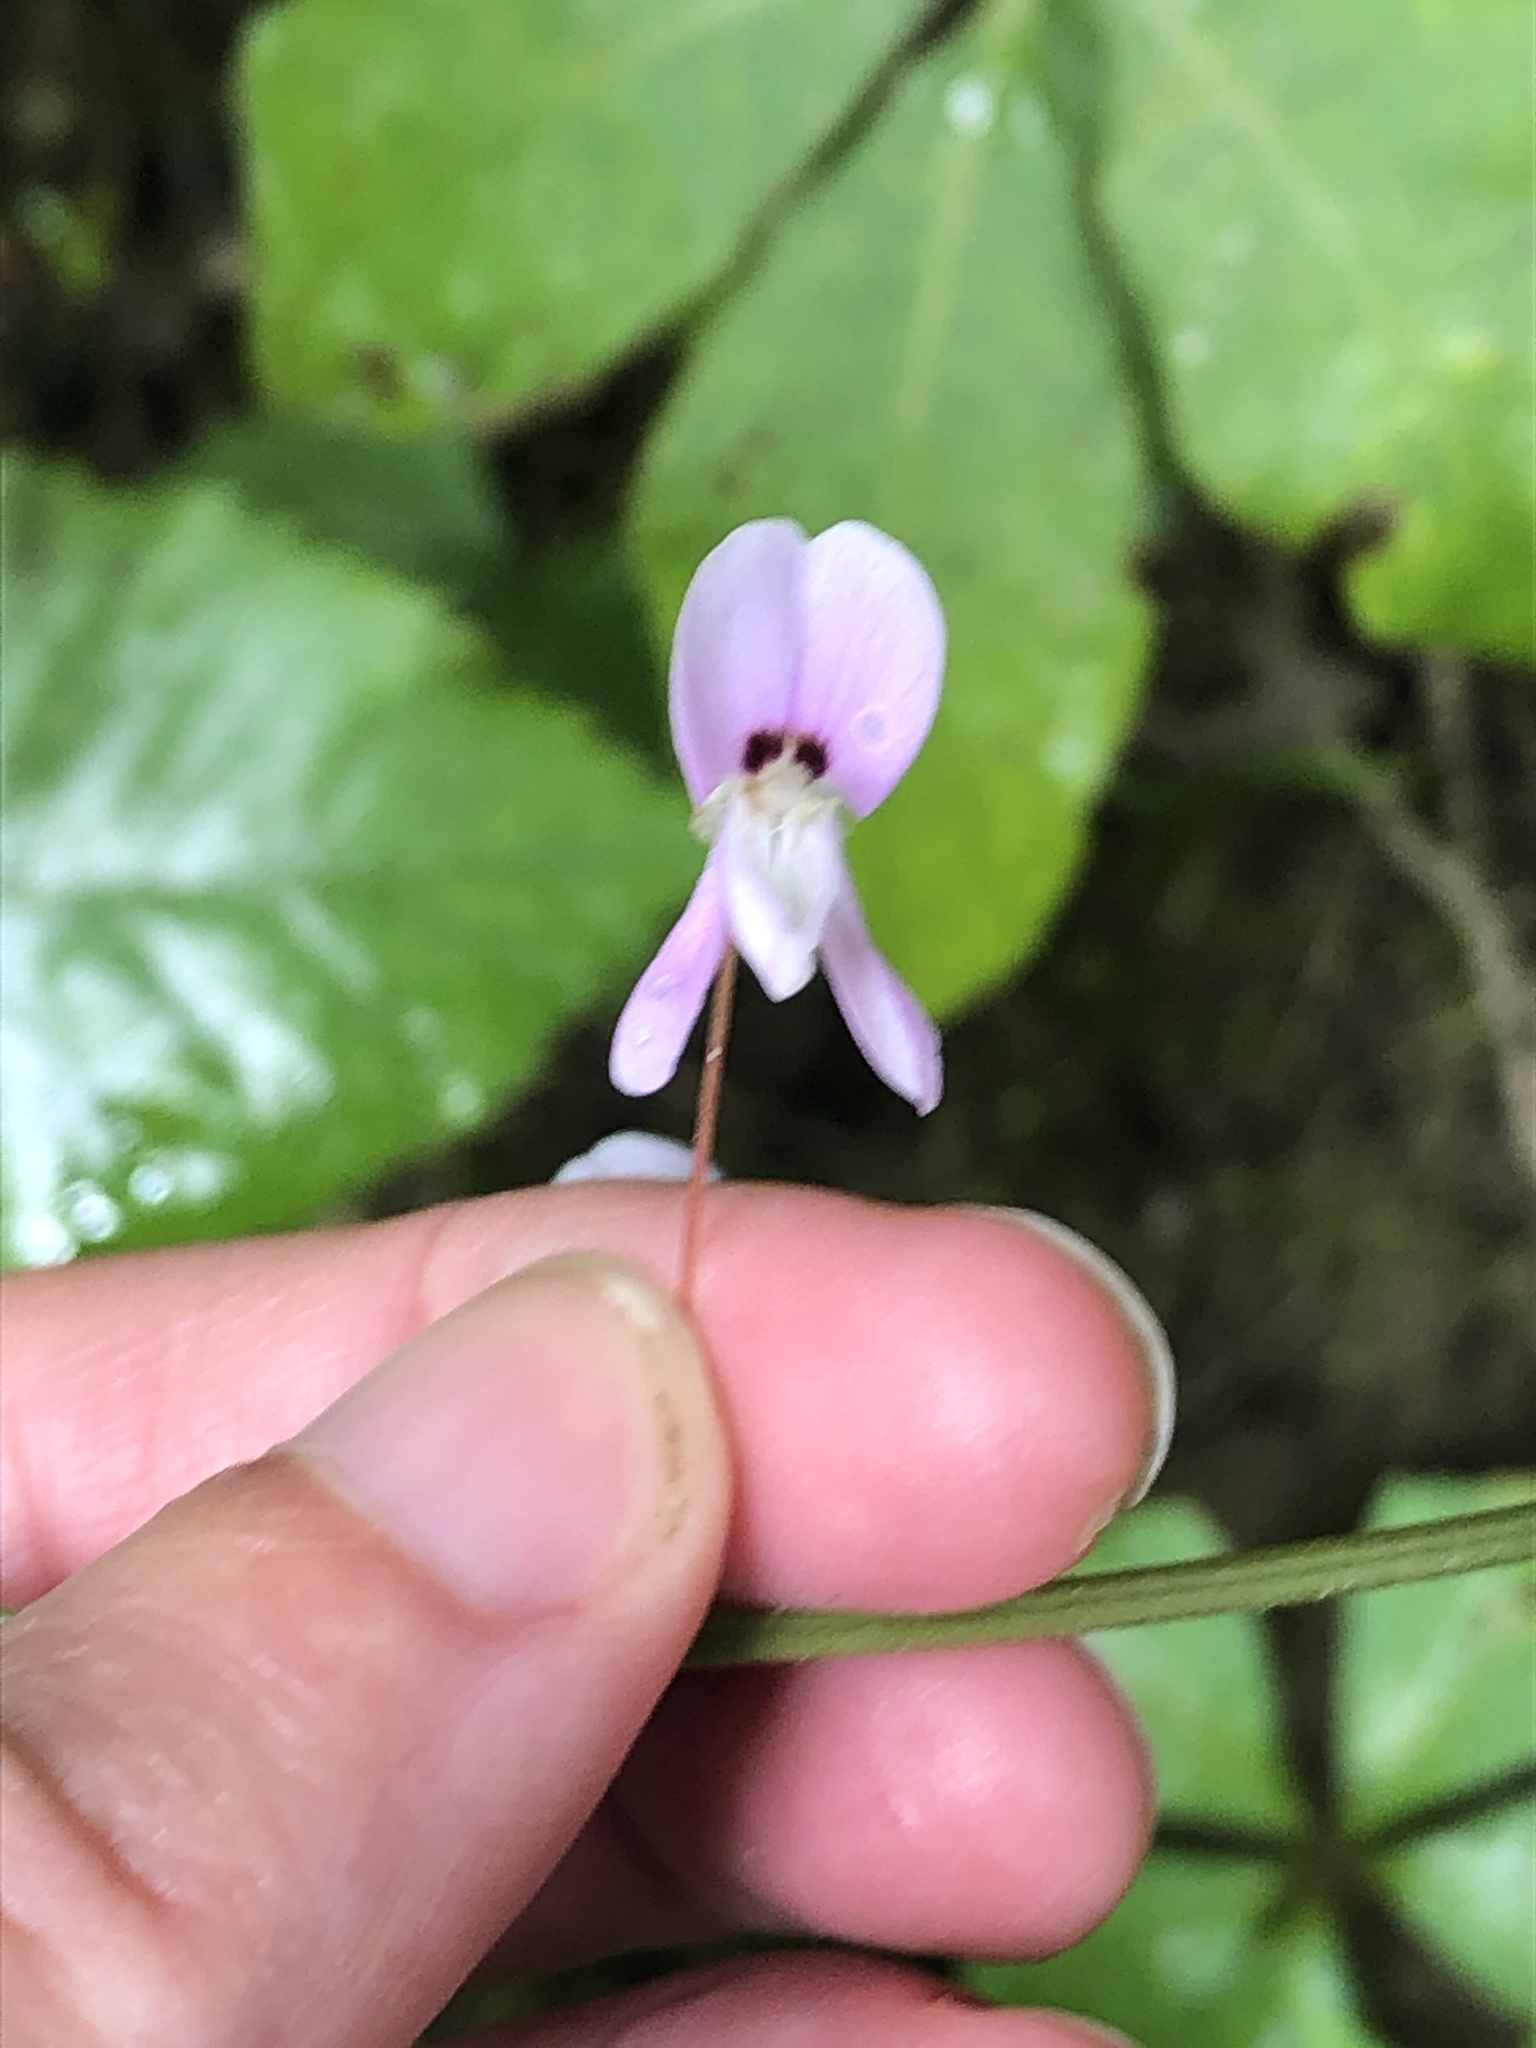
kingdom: Plantae
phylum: Tracheophyta
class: Magnoliopsida
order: Fabales
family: Fabaceae
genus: Hylodesmum
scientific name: Hylodesmum nudiflorum
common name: Bare-stemmed tick-trefoil
